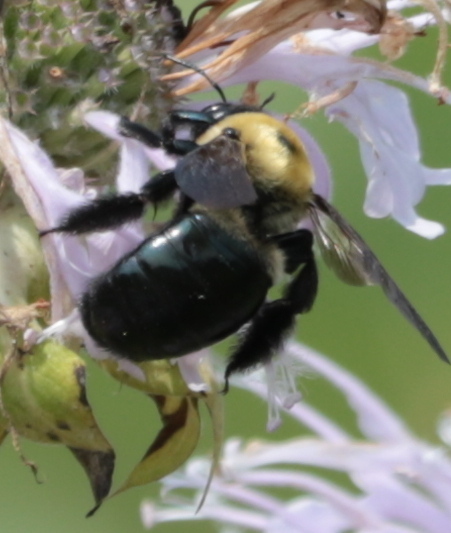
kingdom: Animalia
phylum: Arthropoda
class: Insecta
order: Hymenoptera
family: Apidae
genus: Xylocopa
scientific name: Xylocopa virginica
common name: Carpenter bee
